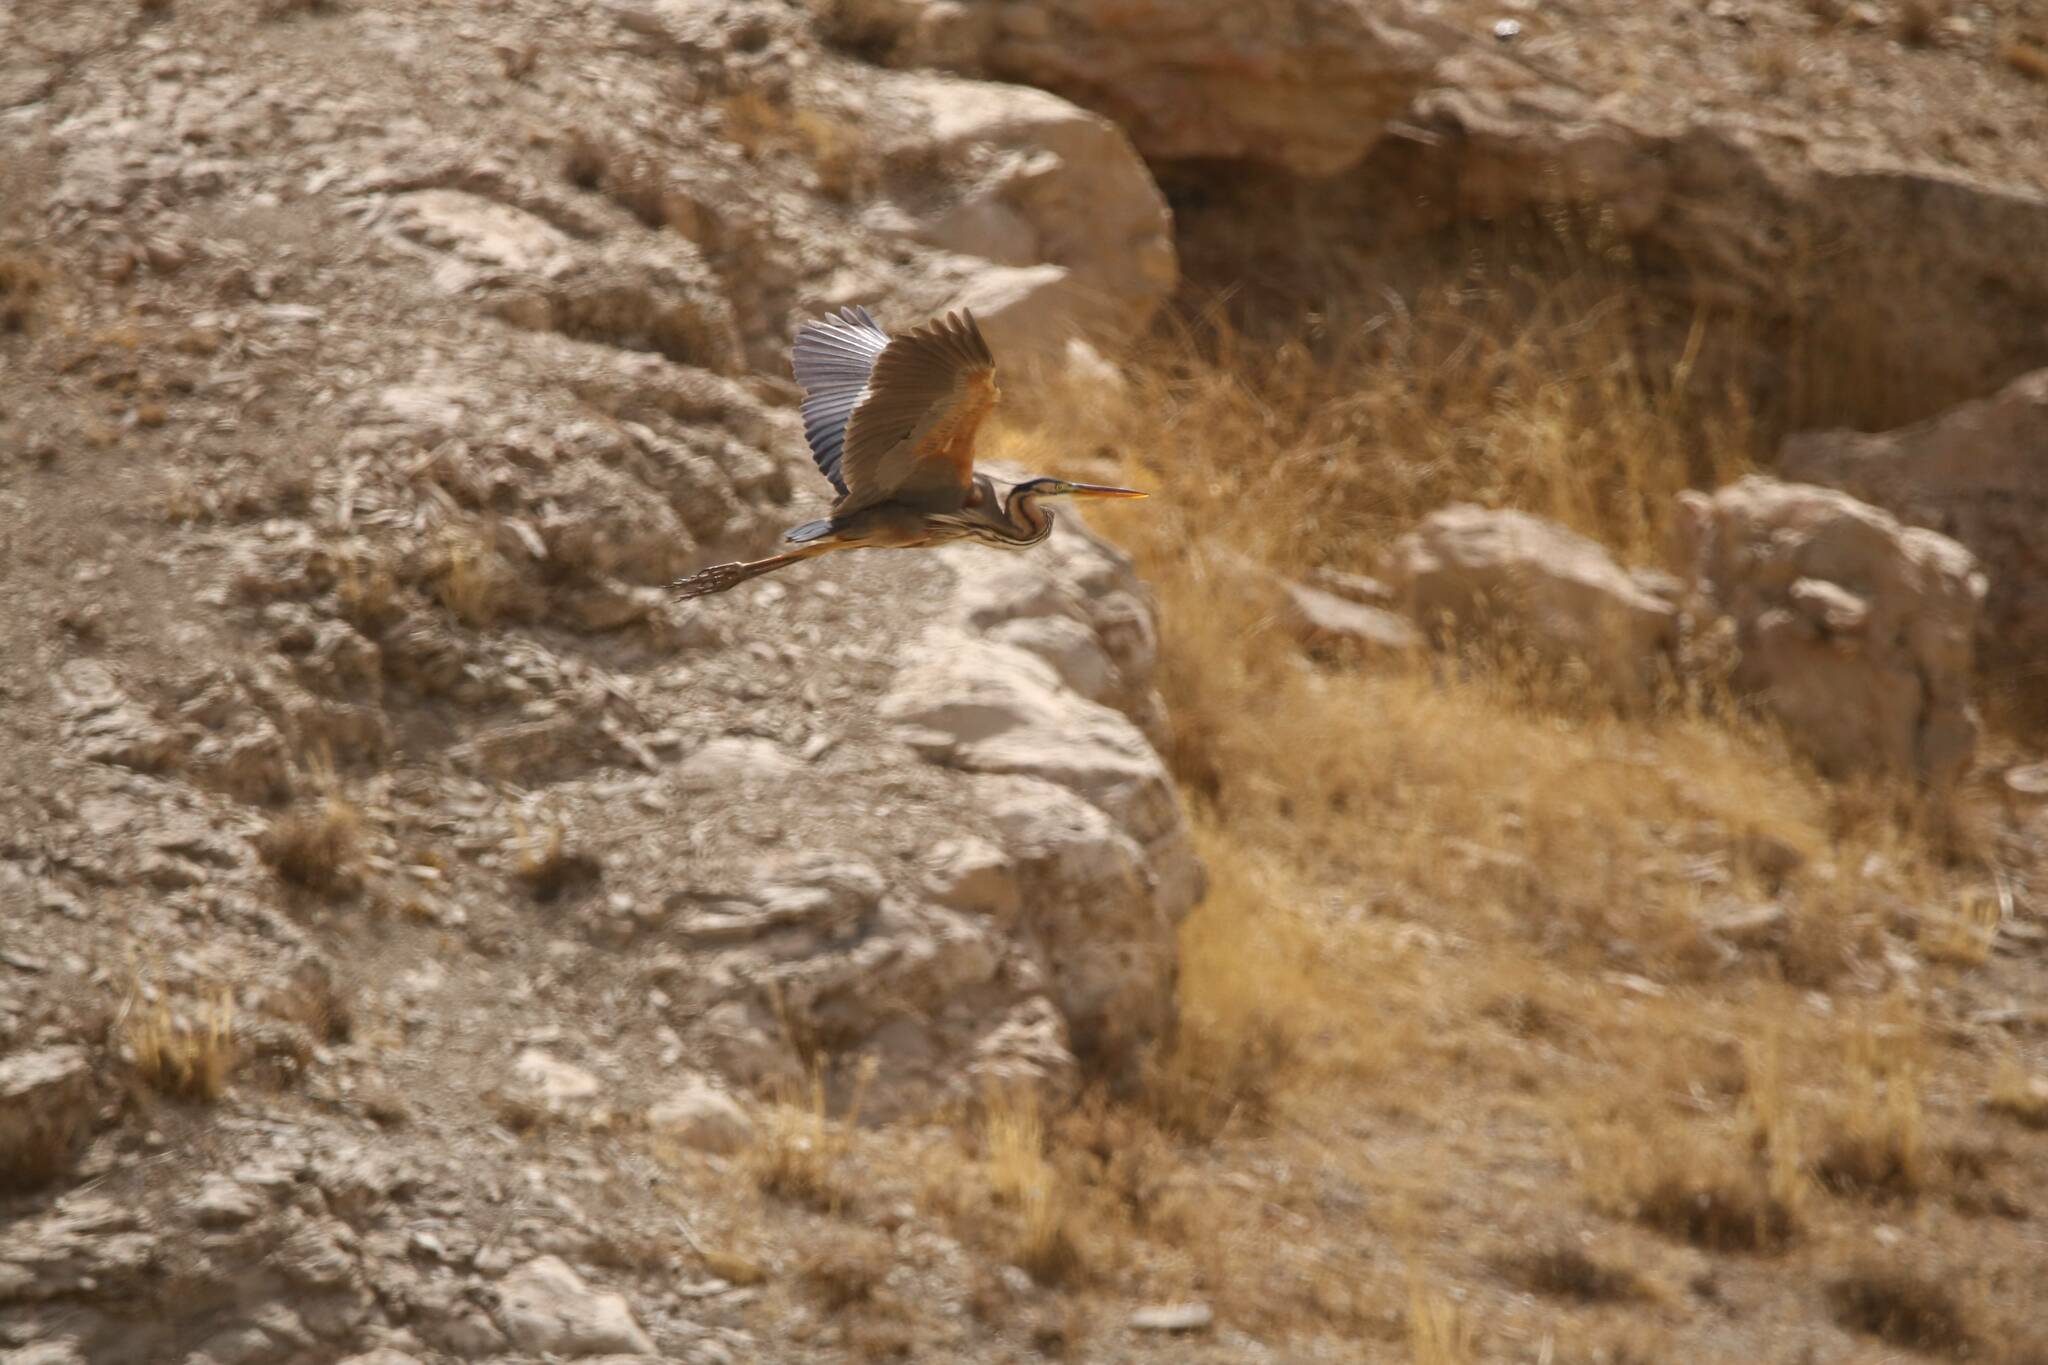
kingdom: Animalia
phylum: Chordata
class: Aves
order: Pelecaniformes
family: Ardeidae
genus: Ardea
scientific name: Ardea purpurea
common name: Purple heron
